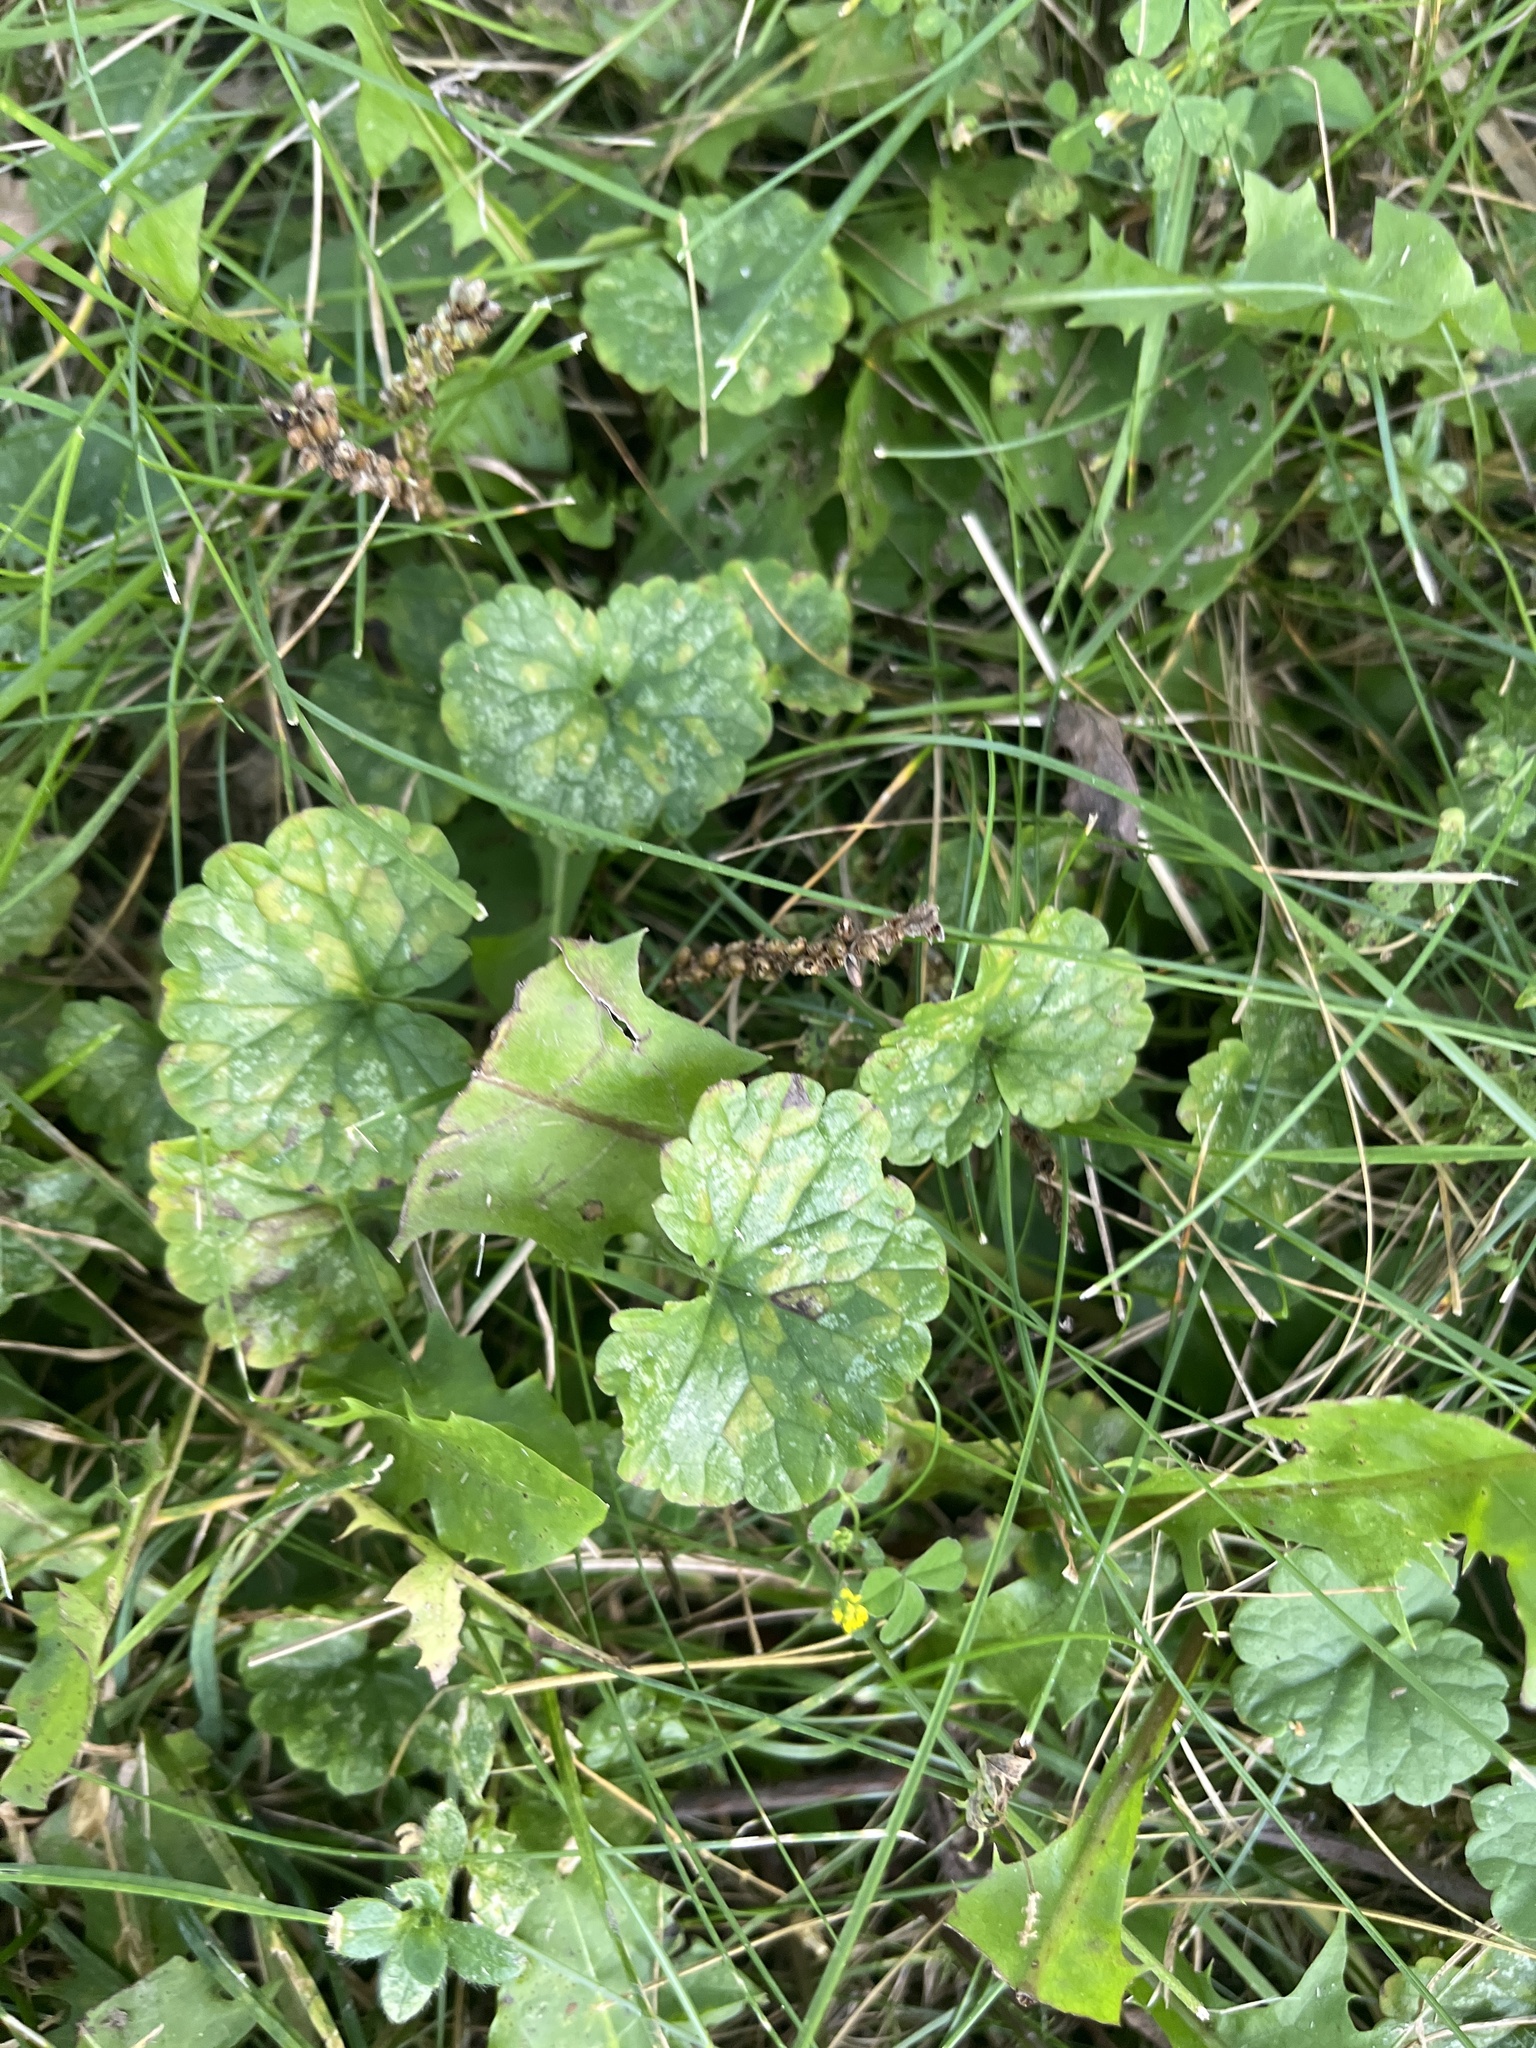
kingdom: Plantae
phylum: Tracheophyta
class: Magnoliopsida
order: Lamiales
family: Lamiaceae
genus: Glechoma
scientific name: Glechoma hederacea
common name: Ground ivy
